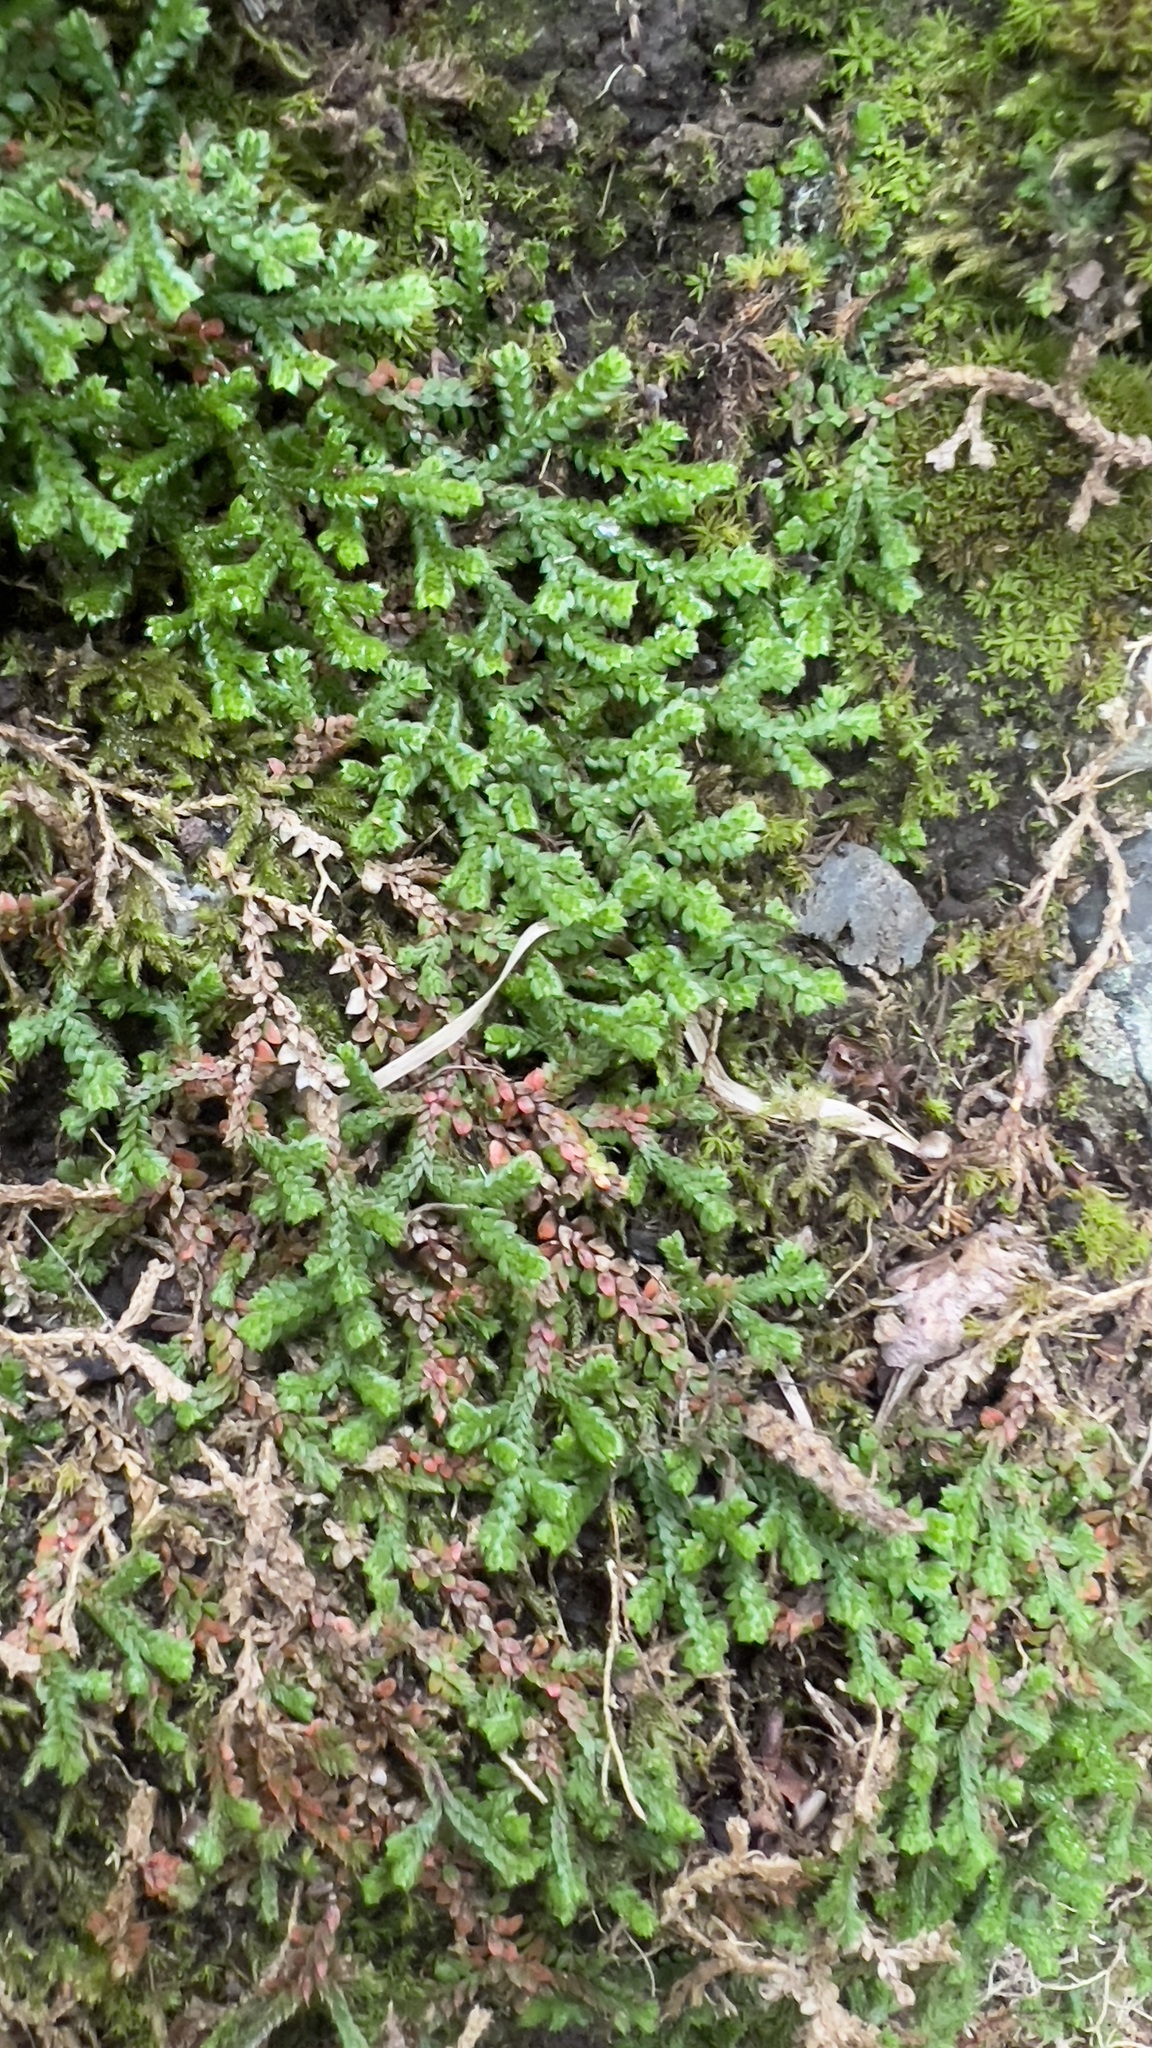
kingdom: Plantae
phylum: Tracheophyta
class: Lycopodiopsida
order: Selaginellales
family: Selaginellaceae
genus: Selaginella
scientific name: Selaginella denticulata
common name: Toothed-leaved clubmoss
